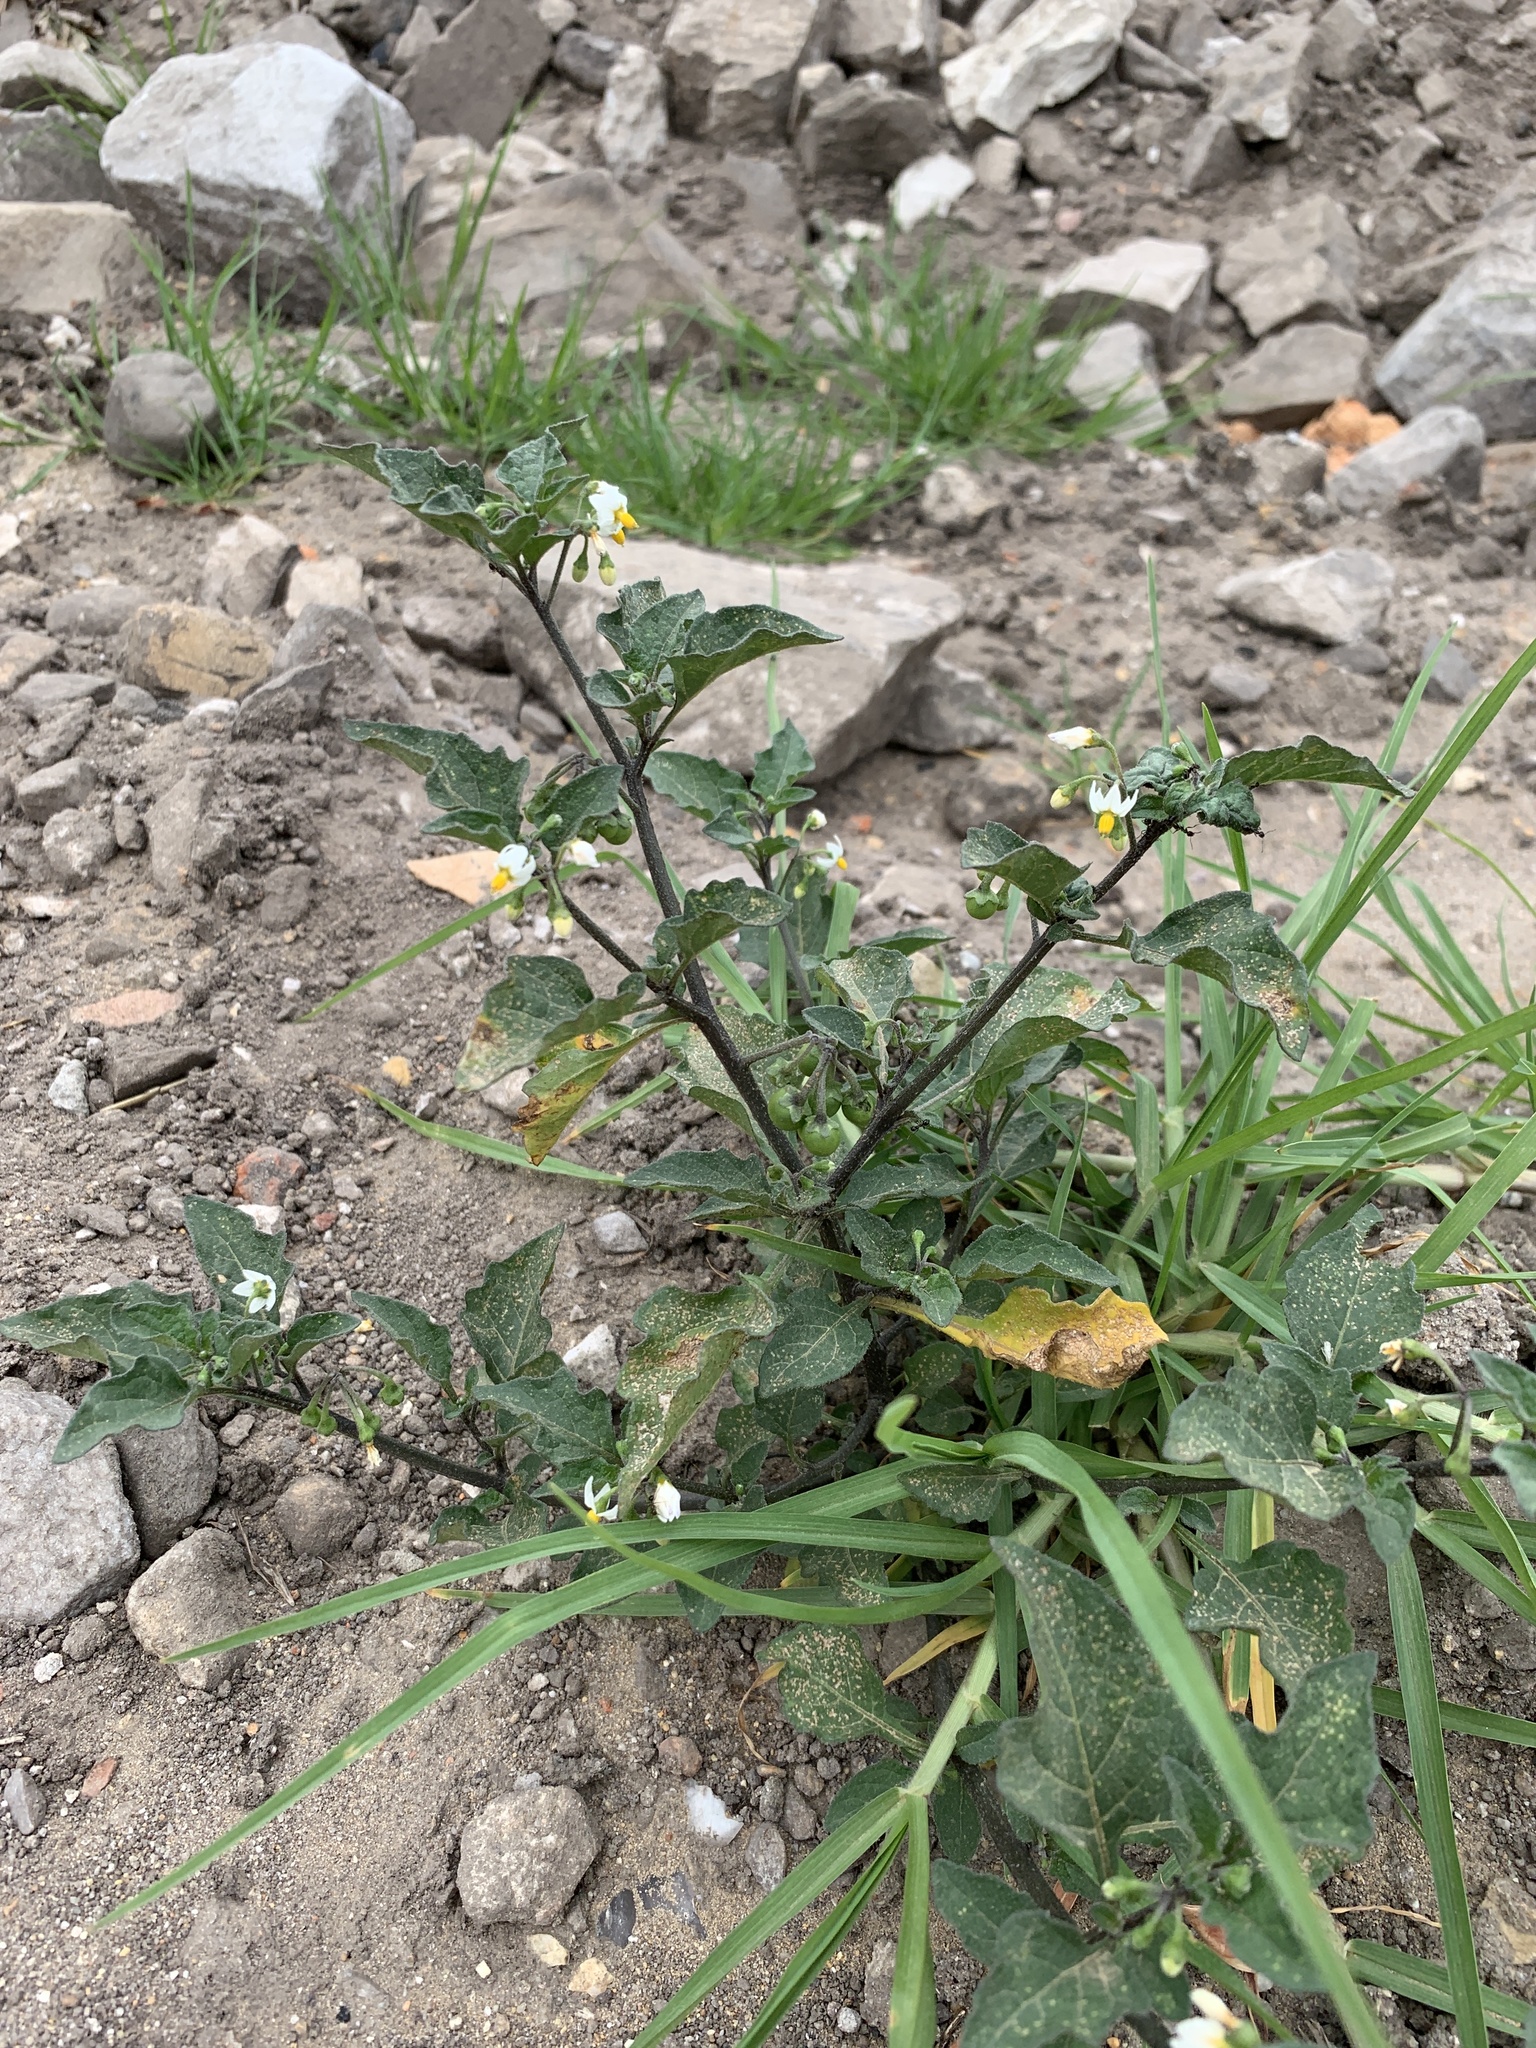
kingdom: Plantae
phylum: Tracheophyta
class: Magnoliopsida
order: Solanales
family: Solanaceae
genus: Solanum
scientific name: Solanum nigrum
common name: Black nightshade
